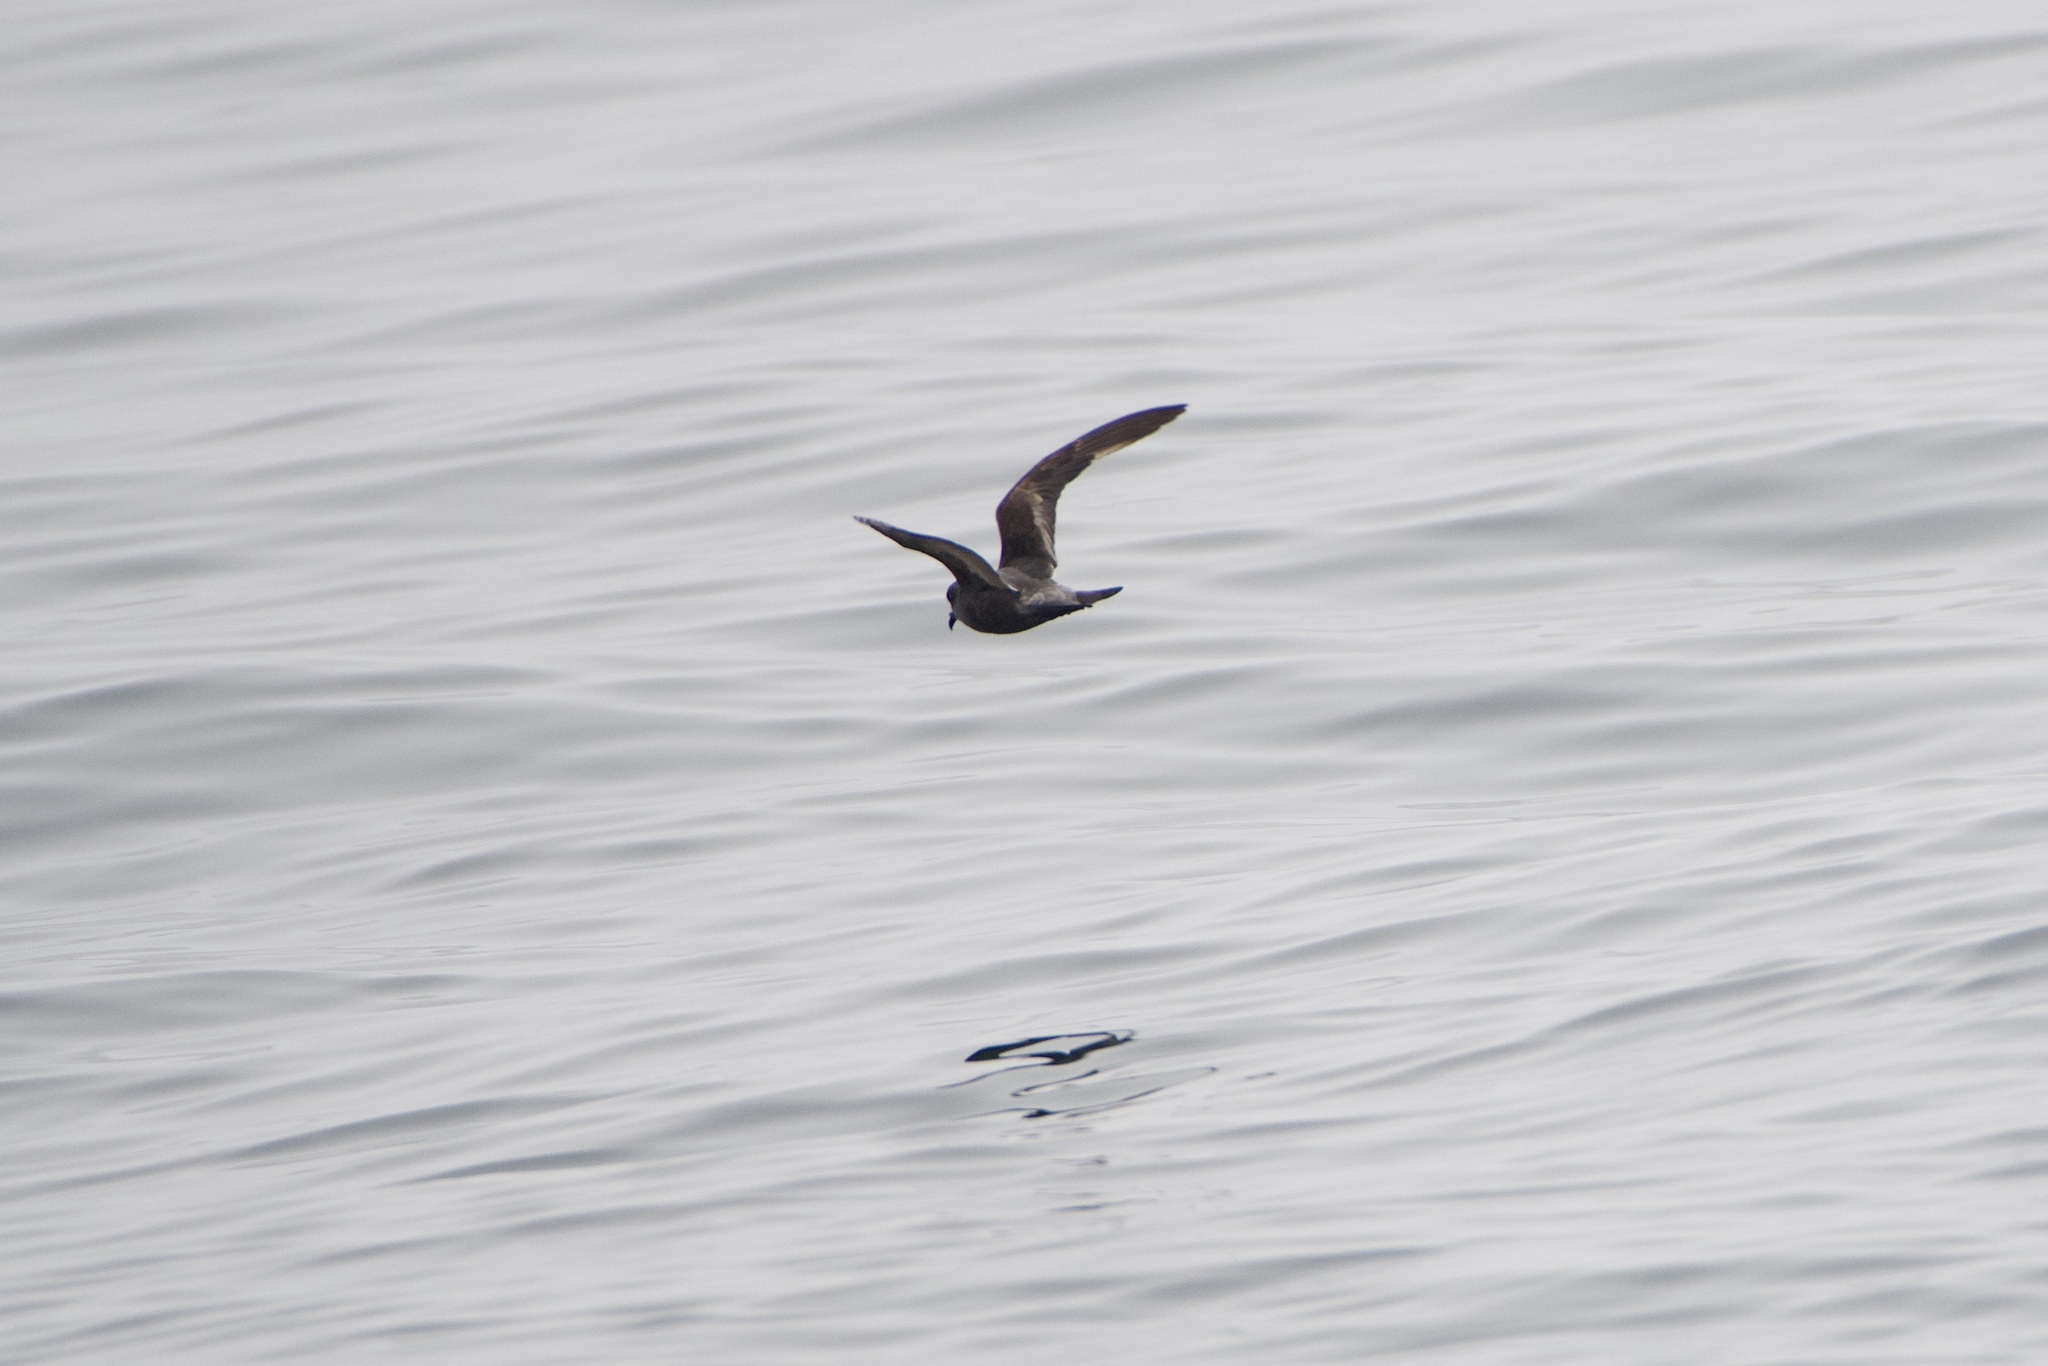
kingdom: Animalia
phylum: Chordata
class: Aves
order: Procellariiformes
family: Hydrobatidae
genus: Hydrobates
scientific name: Hydrobates homochroa
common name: Ashy storm petrel
